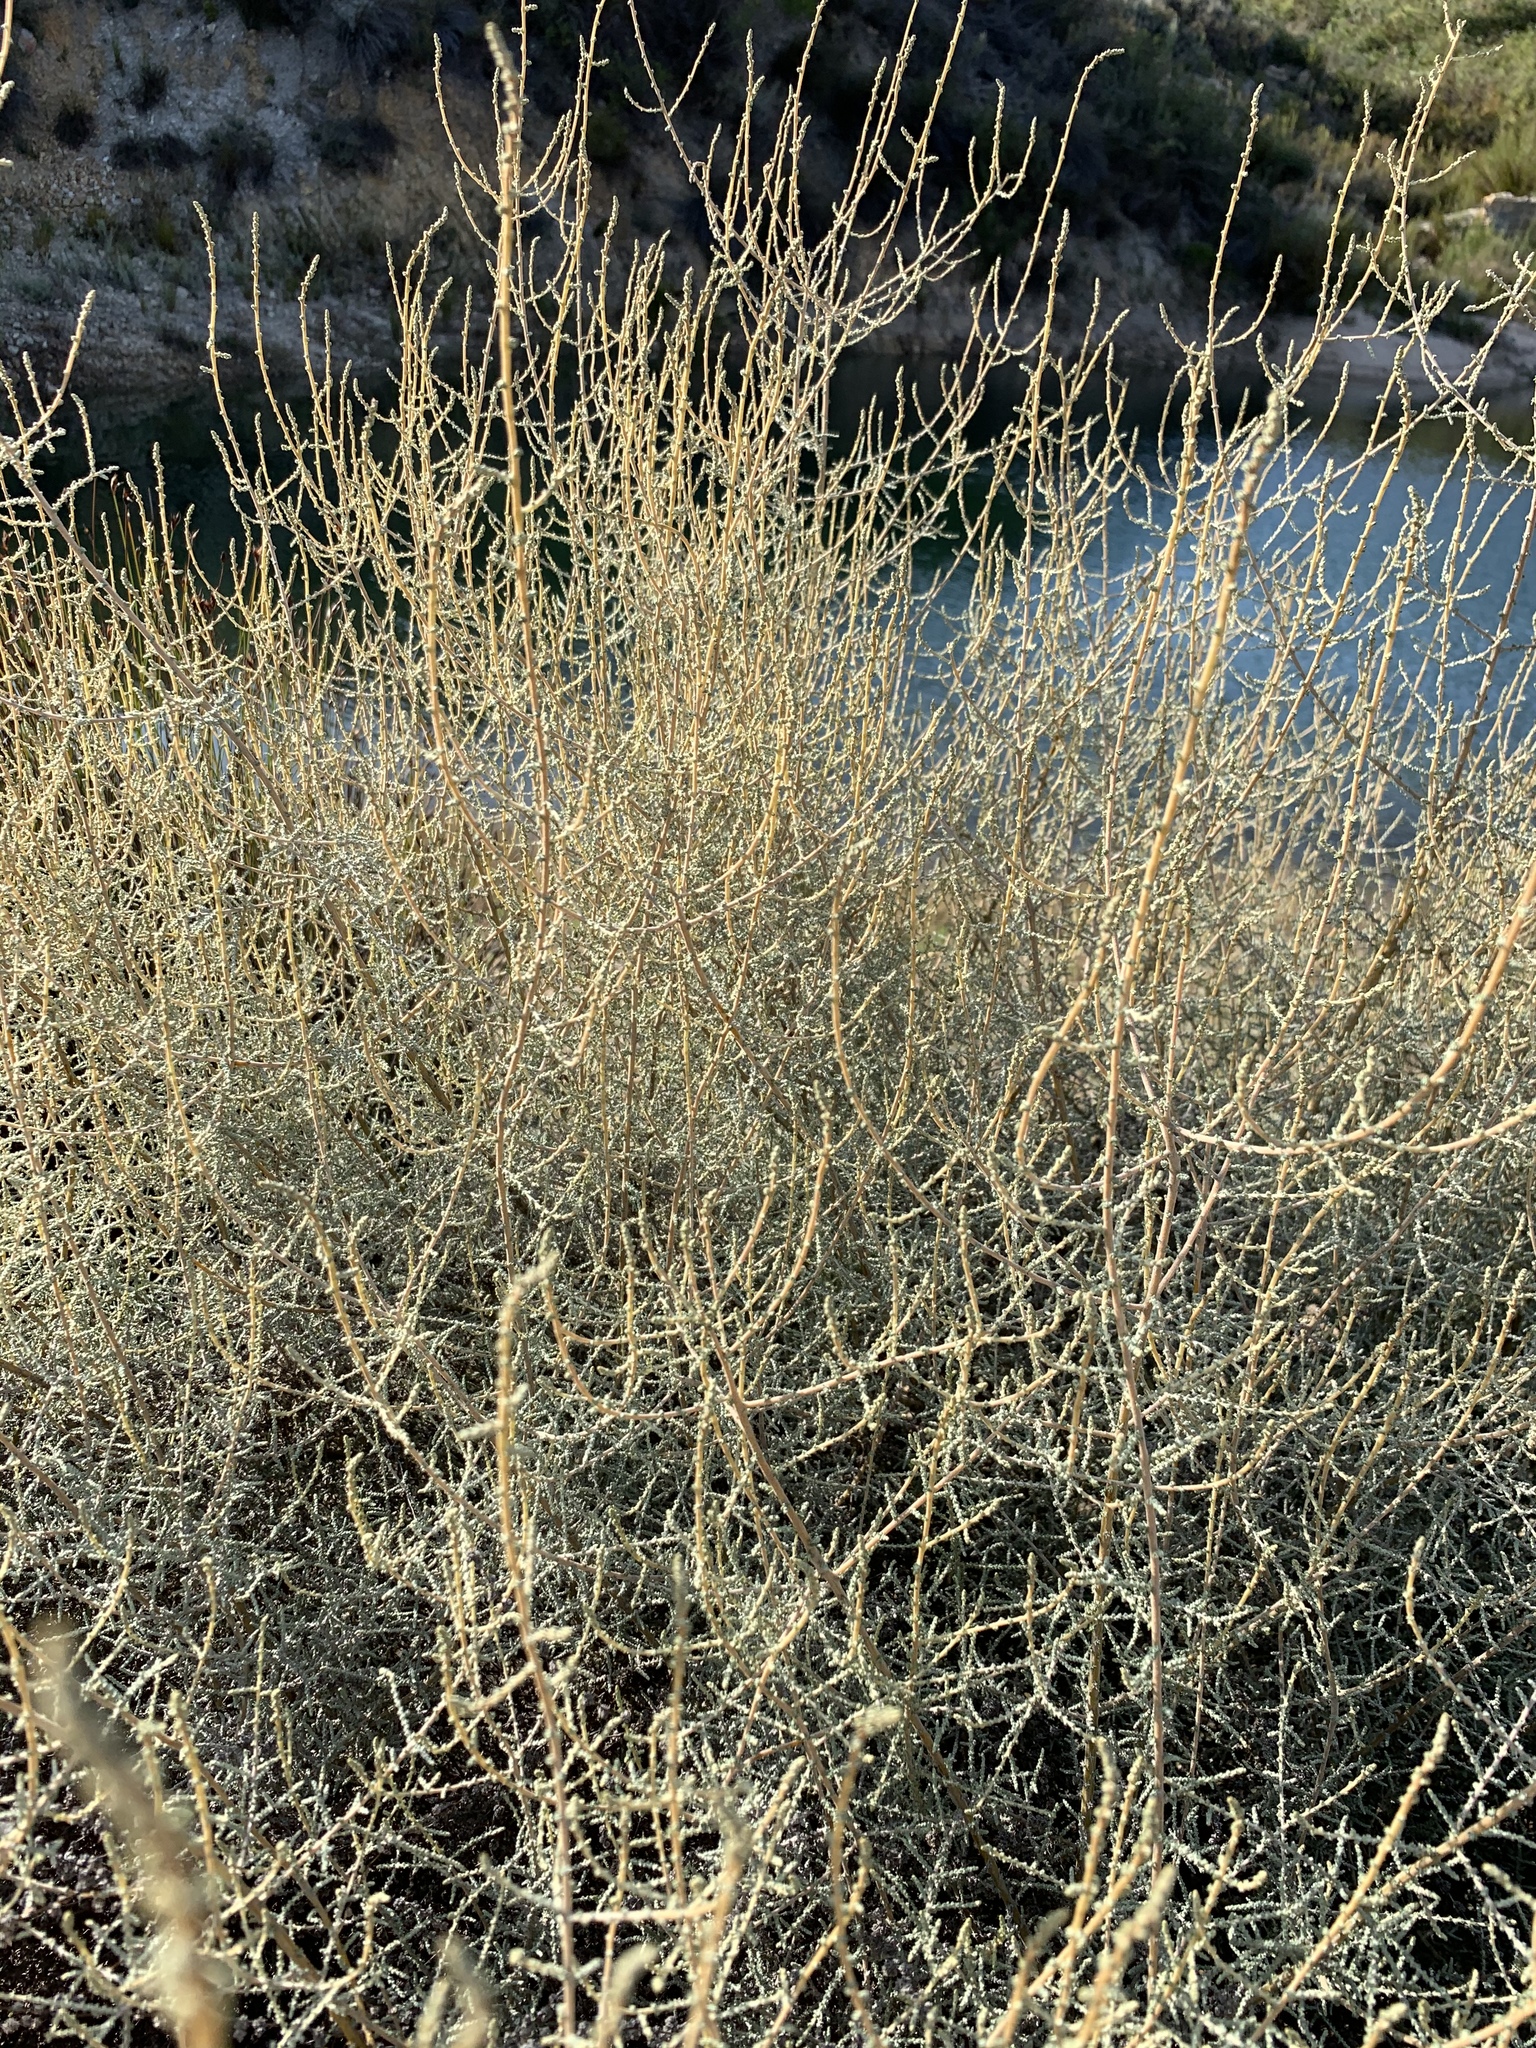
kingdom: Plantae
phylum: Tracheophyta
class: Magnoliopsida
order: Asterales
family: Asteraceae
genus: Seriphium
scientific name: Seriphium plumosum
